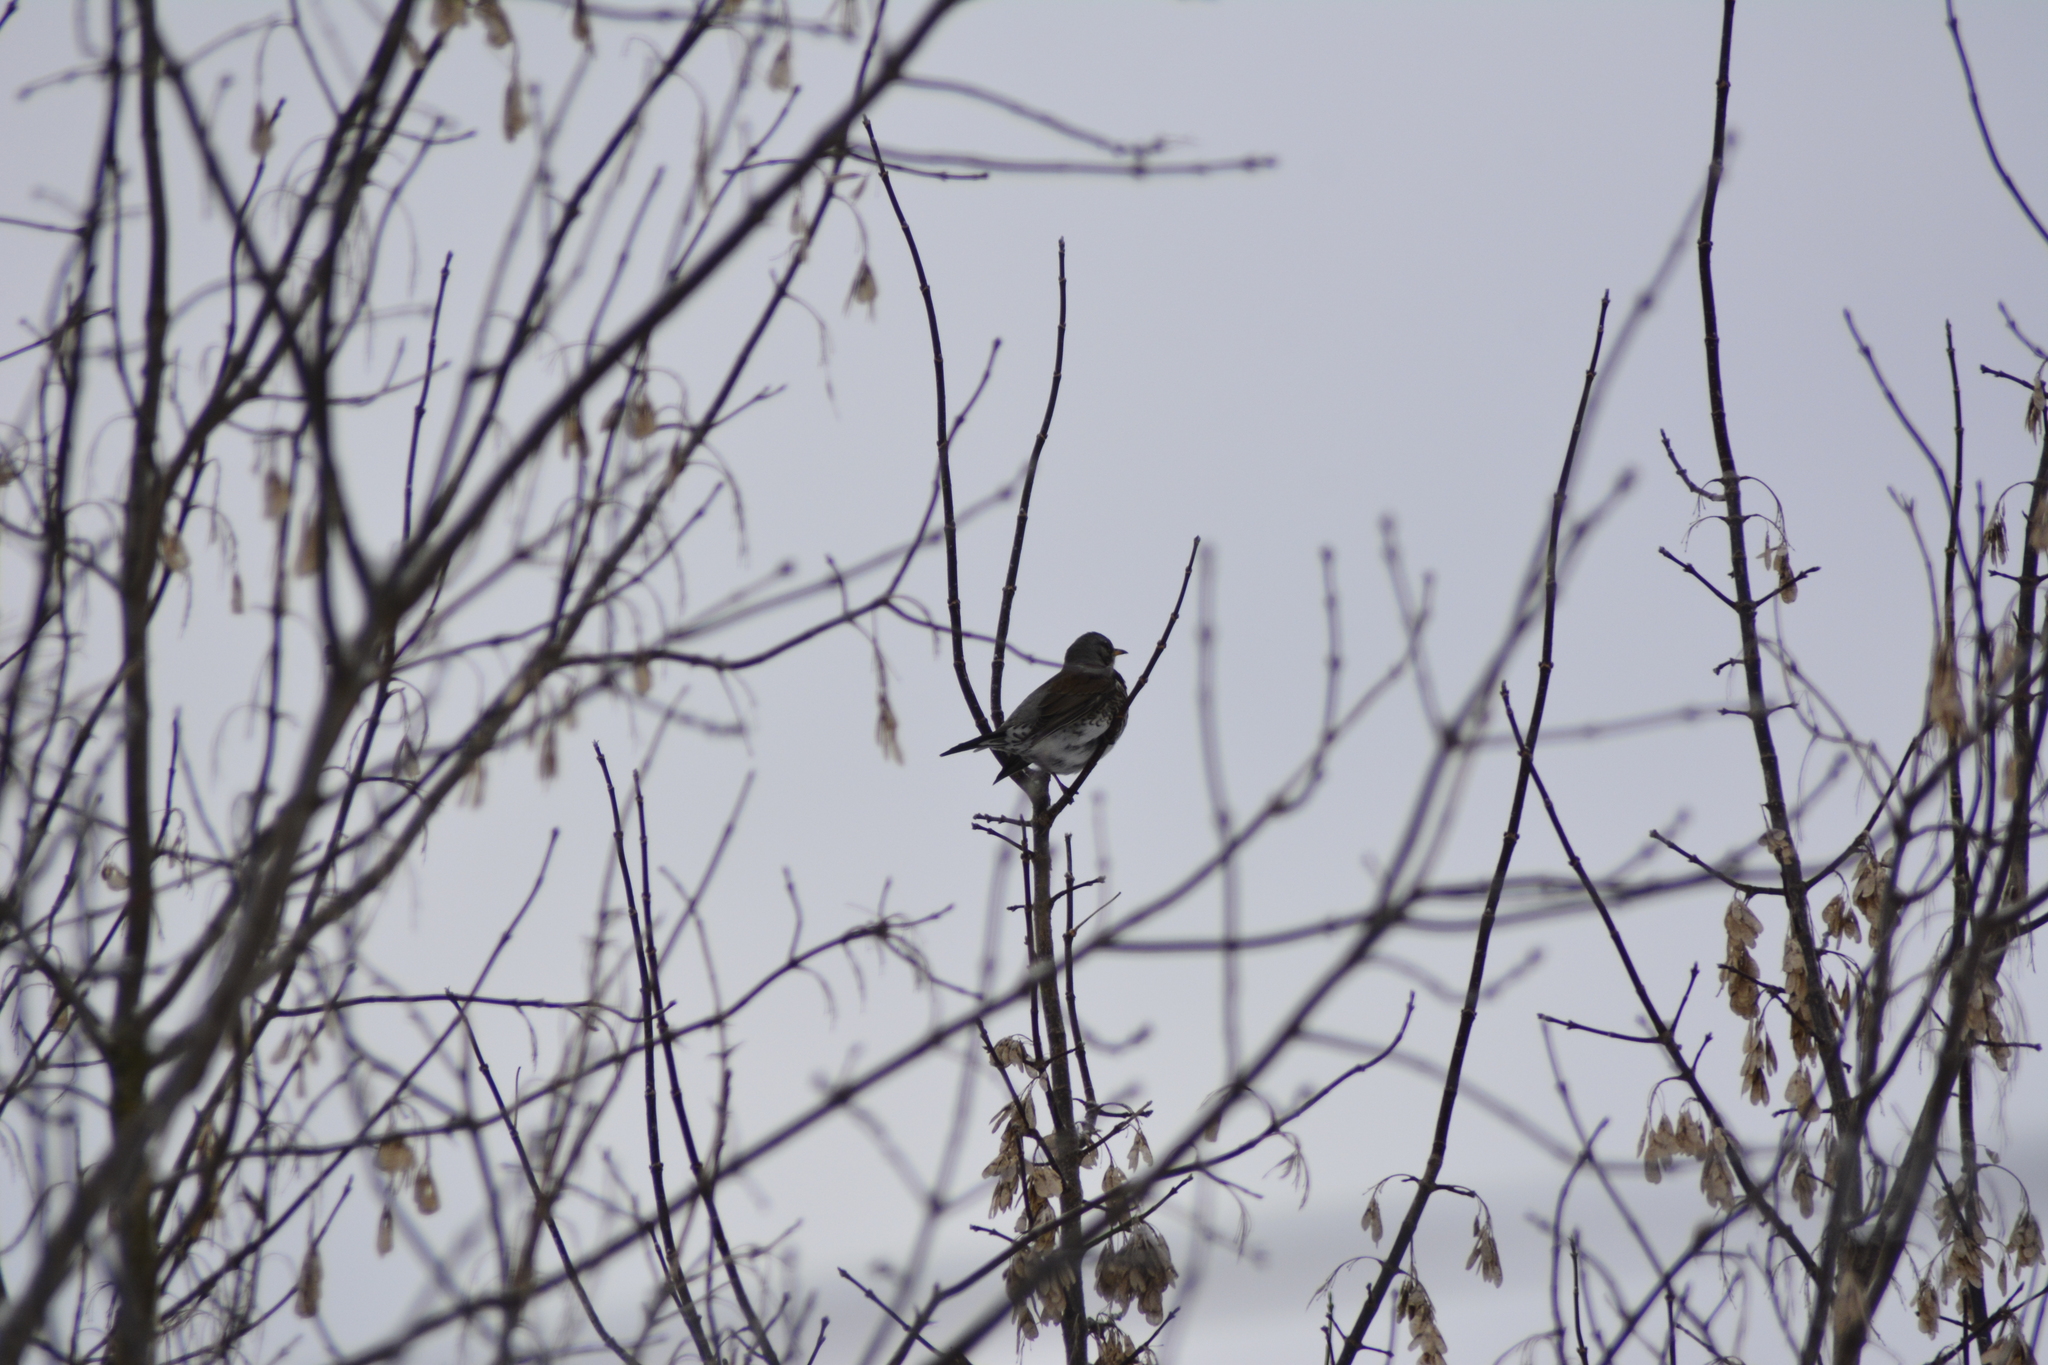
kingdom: Animalia
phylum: Chordata
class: Aves
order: Passeriformes
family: Turdidae
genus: Turdus
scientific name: Turdus pilaris
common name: Fieldfare
